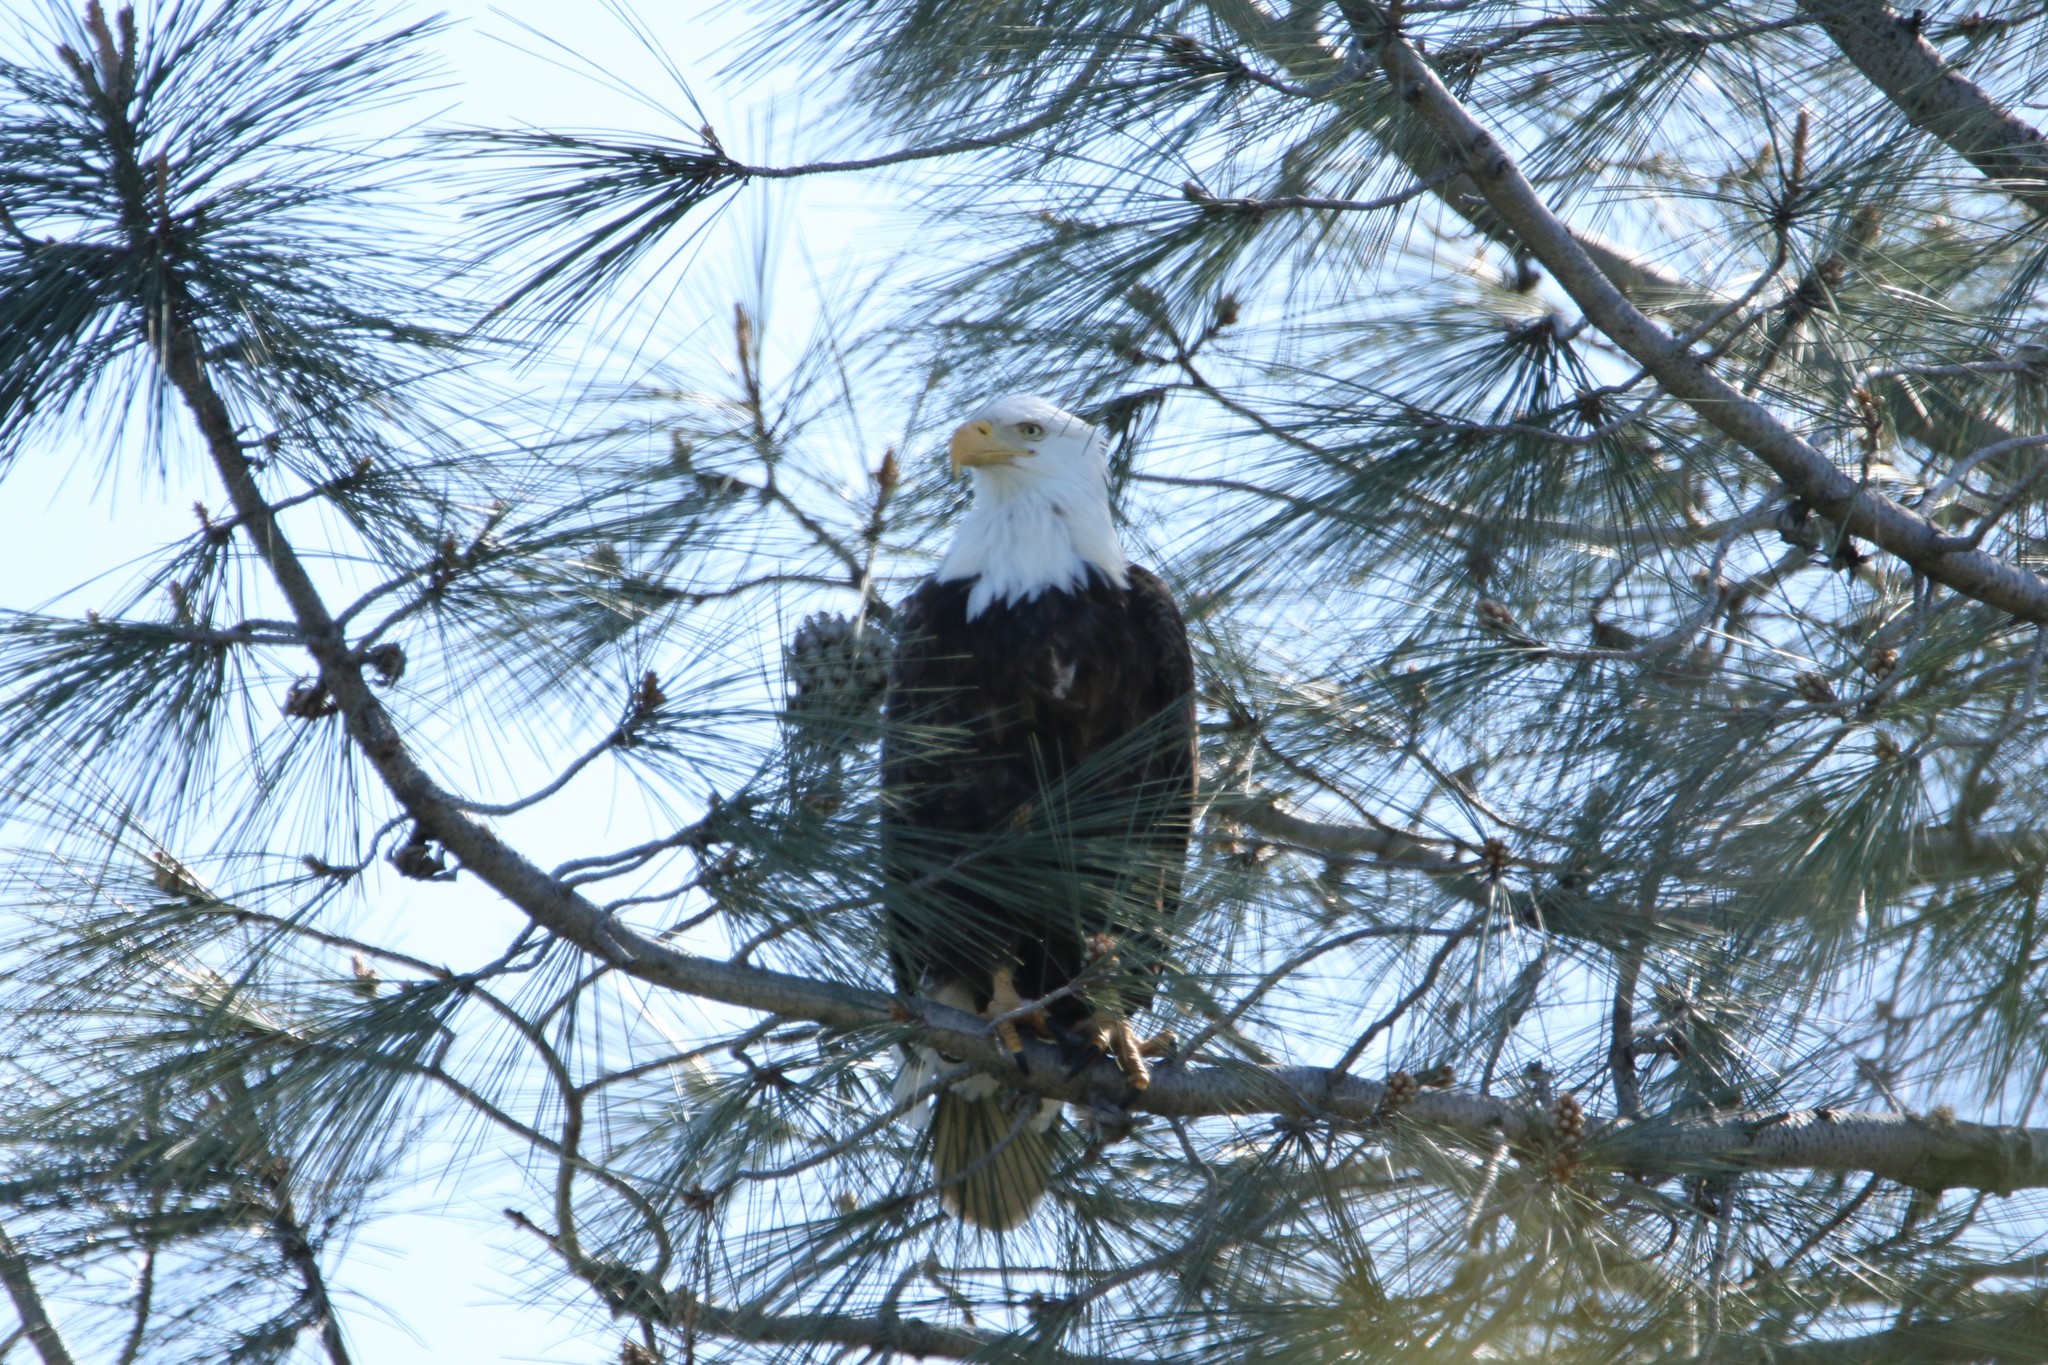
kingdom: Animalia
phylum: Chordata
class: Aves
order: Accipitriformes
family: Accipitridae
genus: Haliaeetus
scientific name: Haliaeetus leucocephalus
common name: Bald eagle
